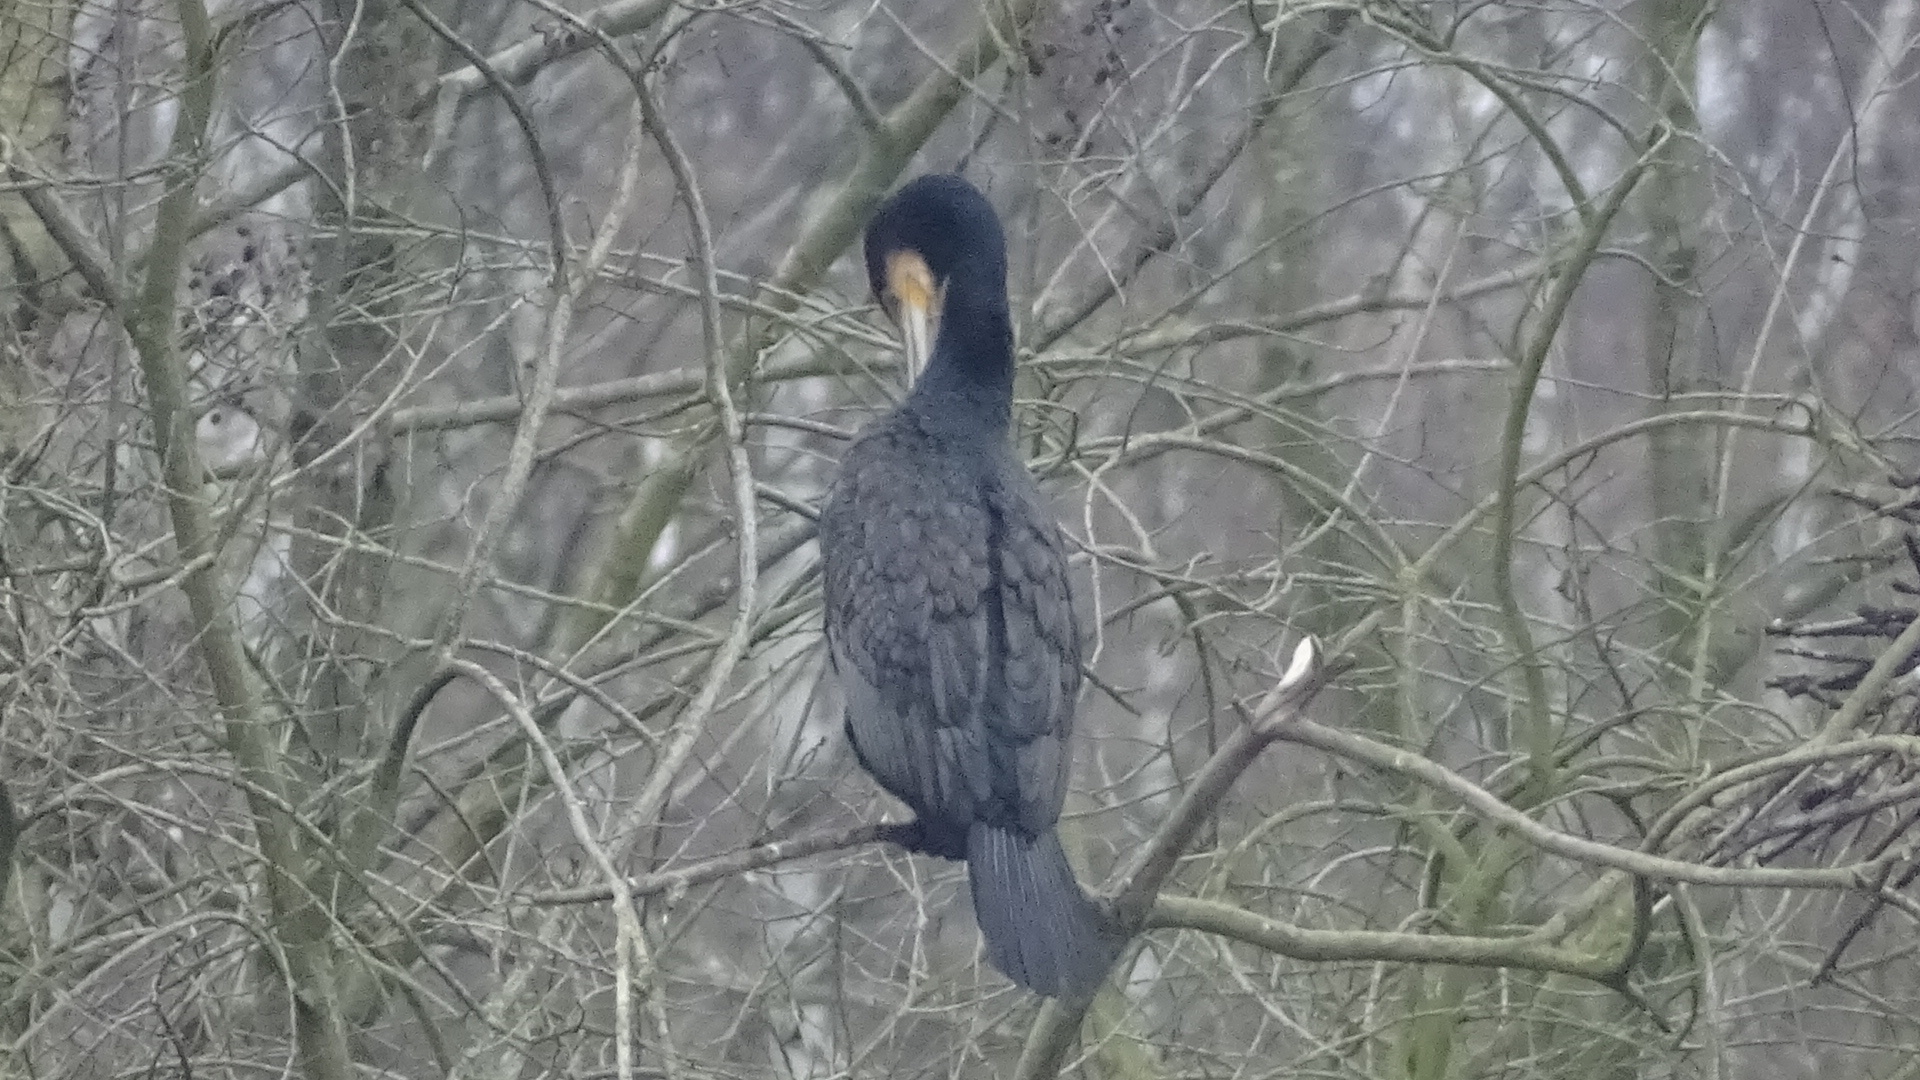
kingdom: Animalia
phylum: Chordata
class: Aves
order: Suliformes
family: Phalacrocoracidae
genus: Phalacrocorax
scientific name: Phalacrocorax carbo
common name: Great cormorant
